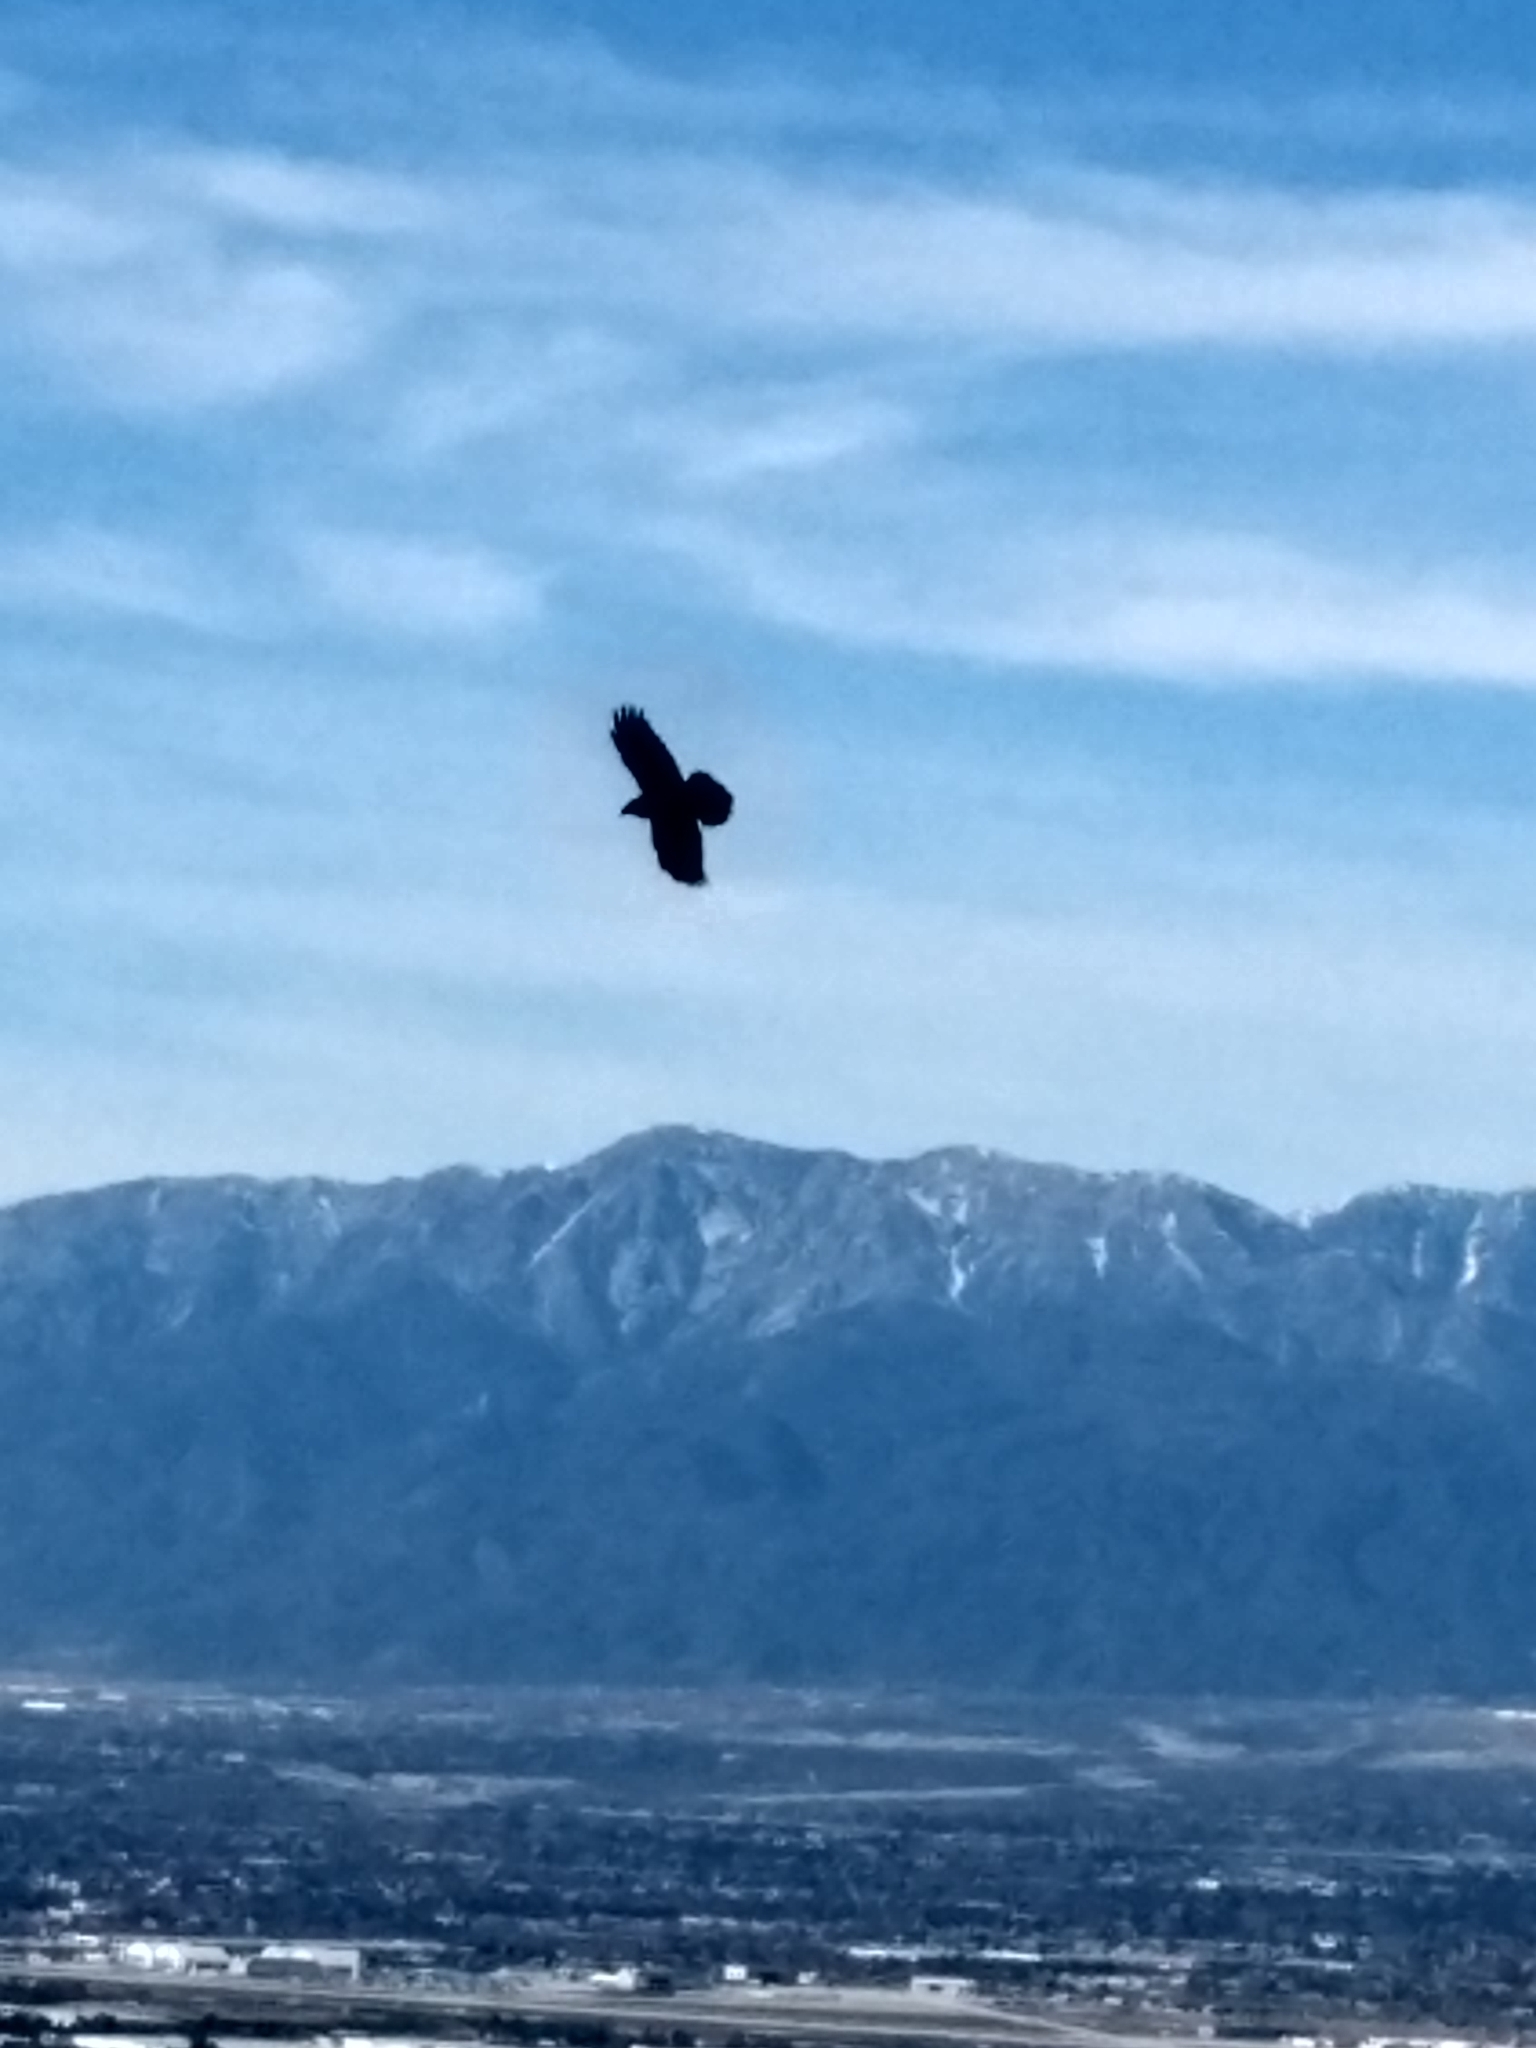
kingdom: Animalia
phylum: Chordata
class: Aves
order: Passeriformes
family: Corvidae
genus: Corvus
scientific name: Corvus corax
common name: Common raven
